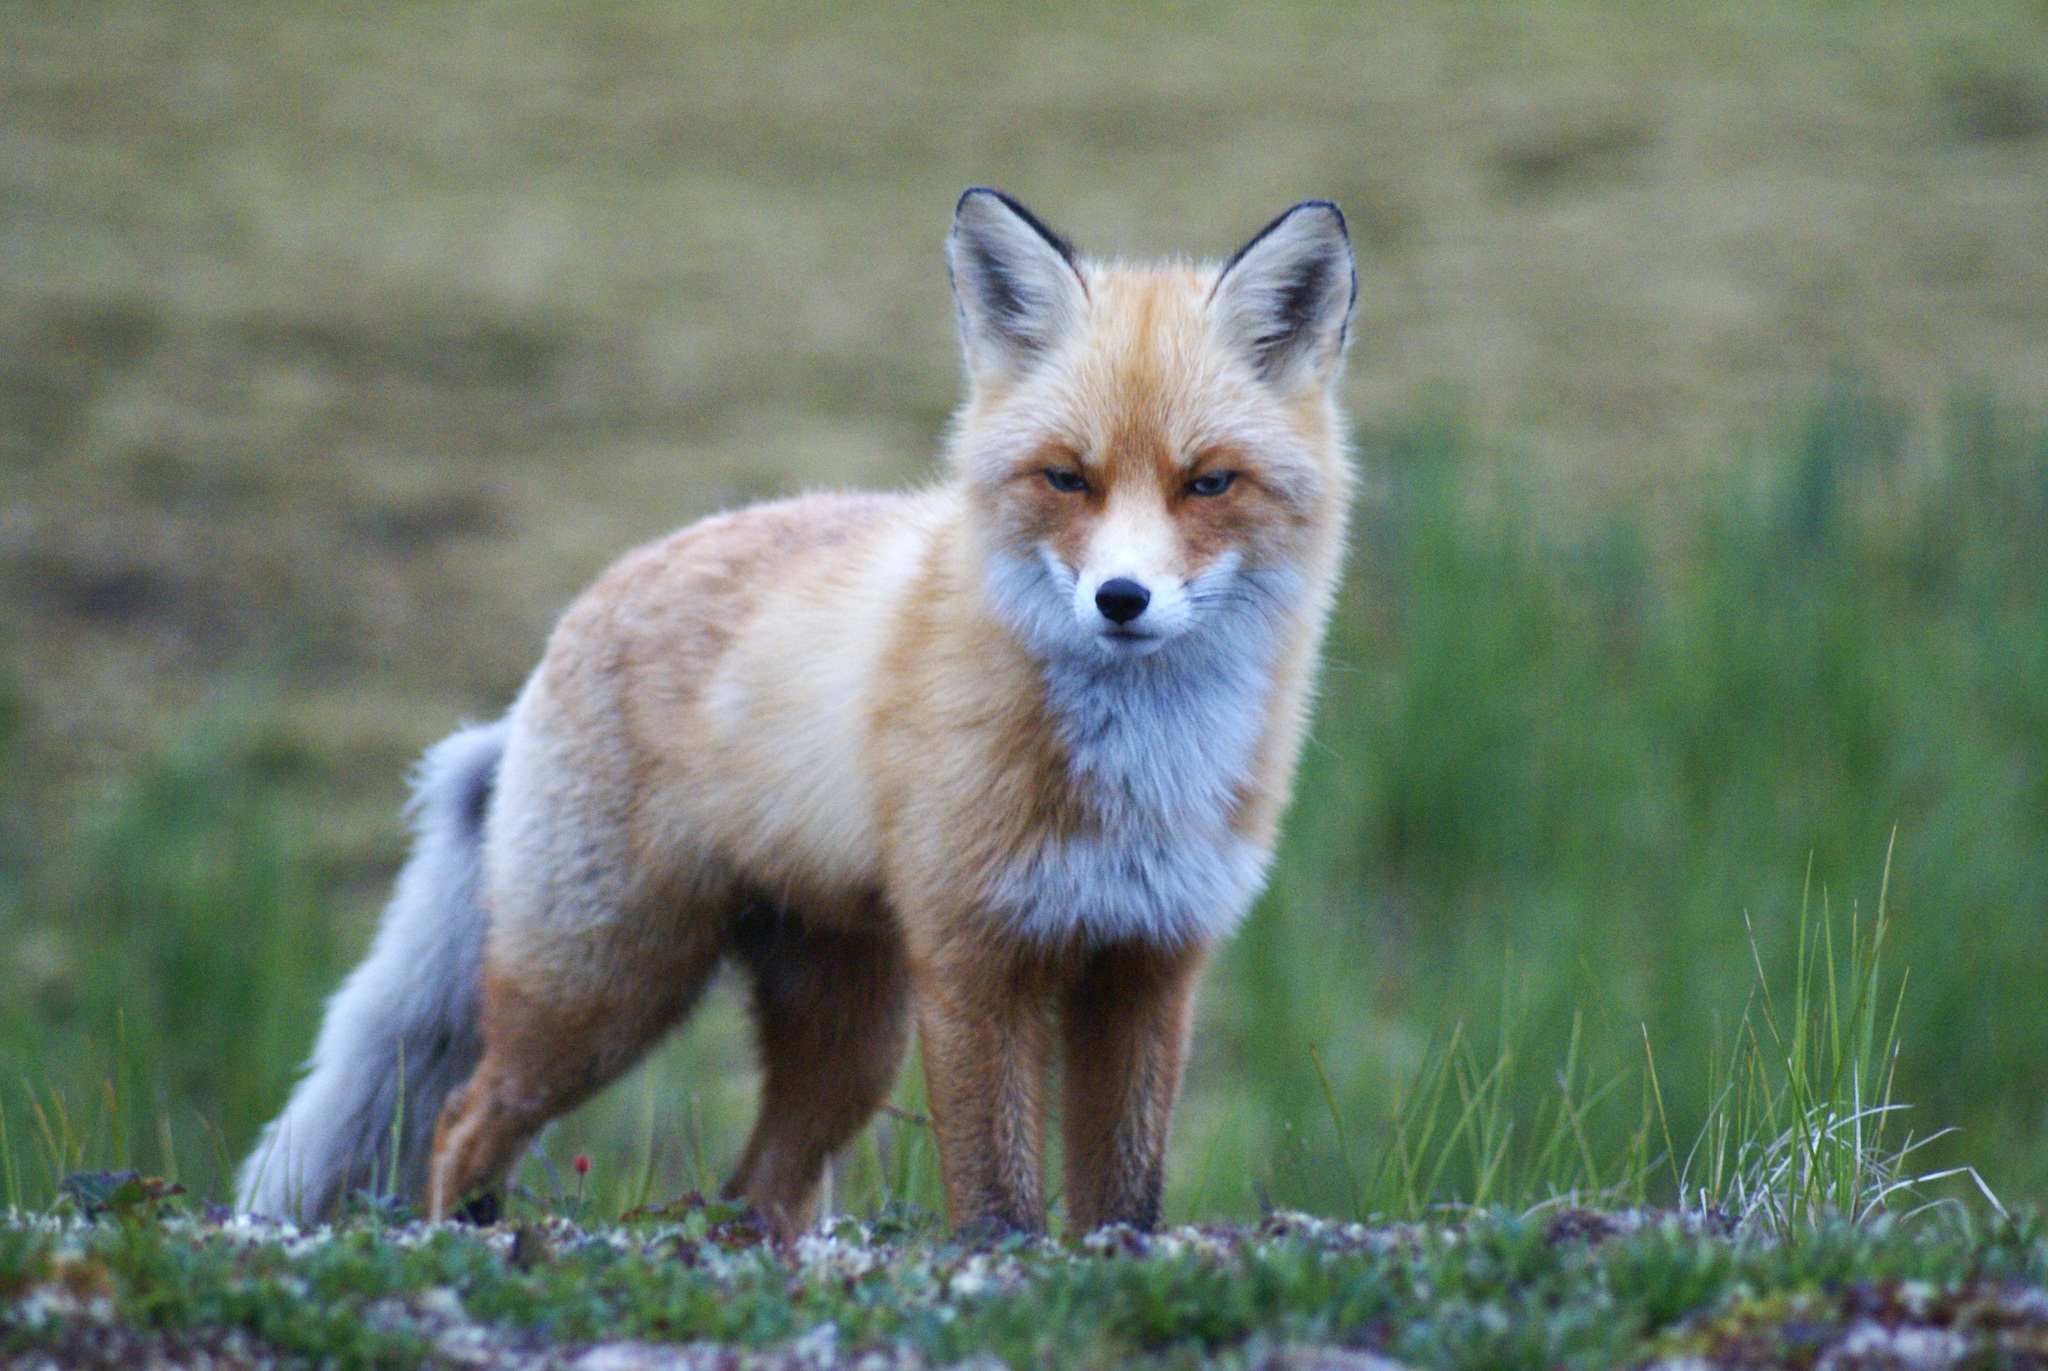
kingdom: Animalia
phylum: Chordata
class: Mammalia
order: Carnivora
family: Canidae
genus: Vulpes
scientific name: Vulpes vulpes
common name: Red fox
